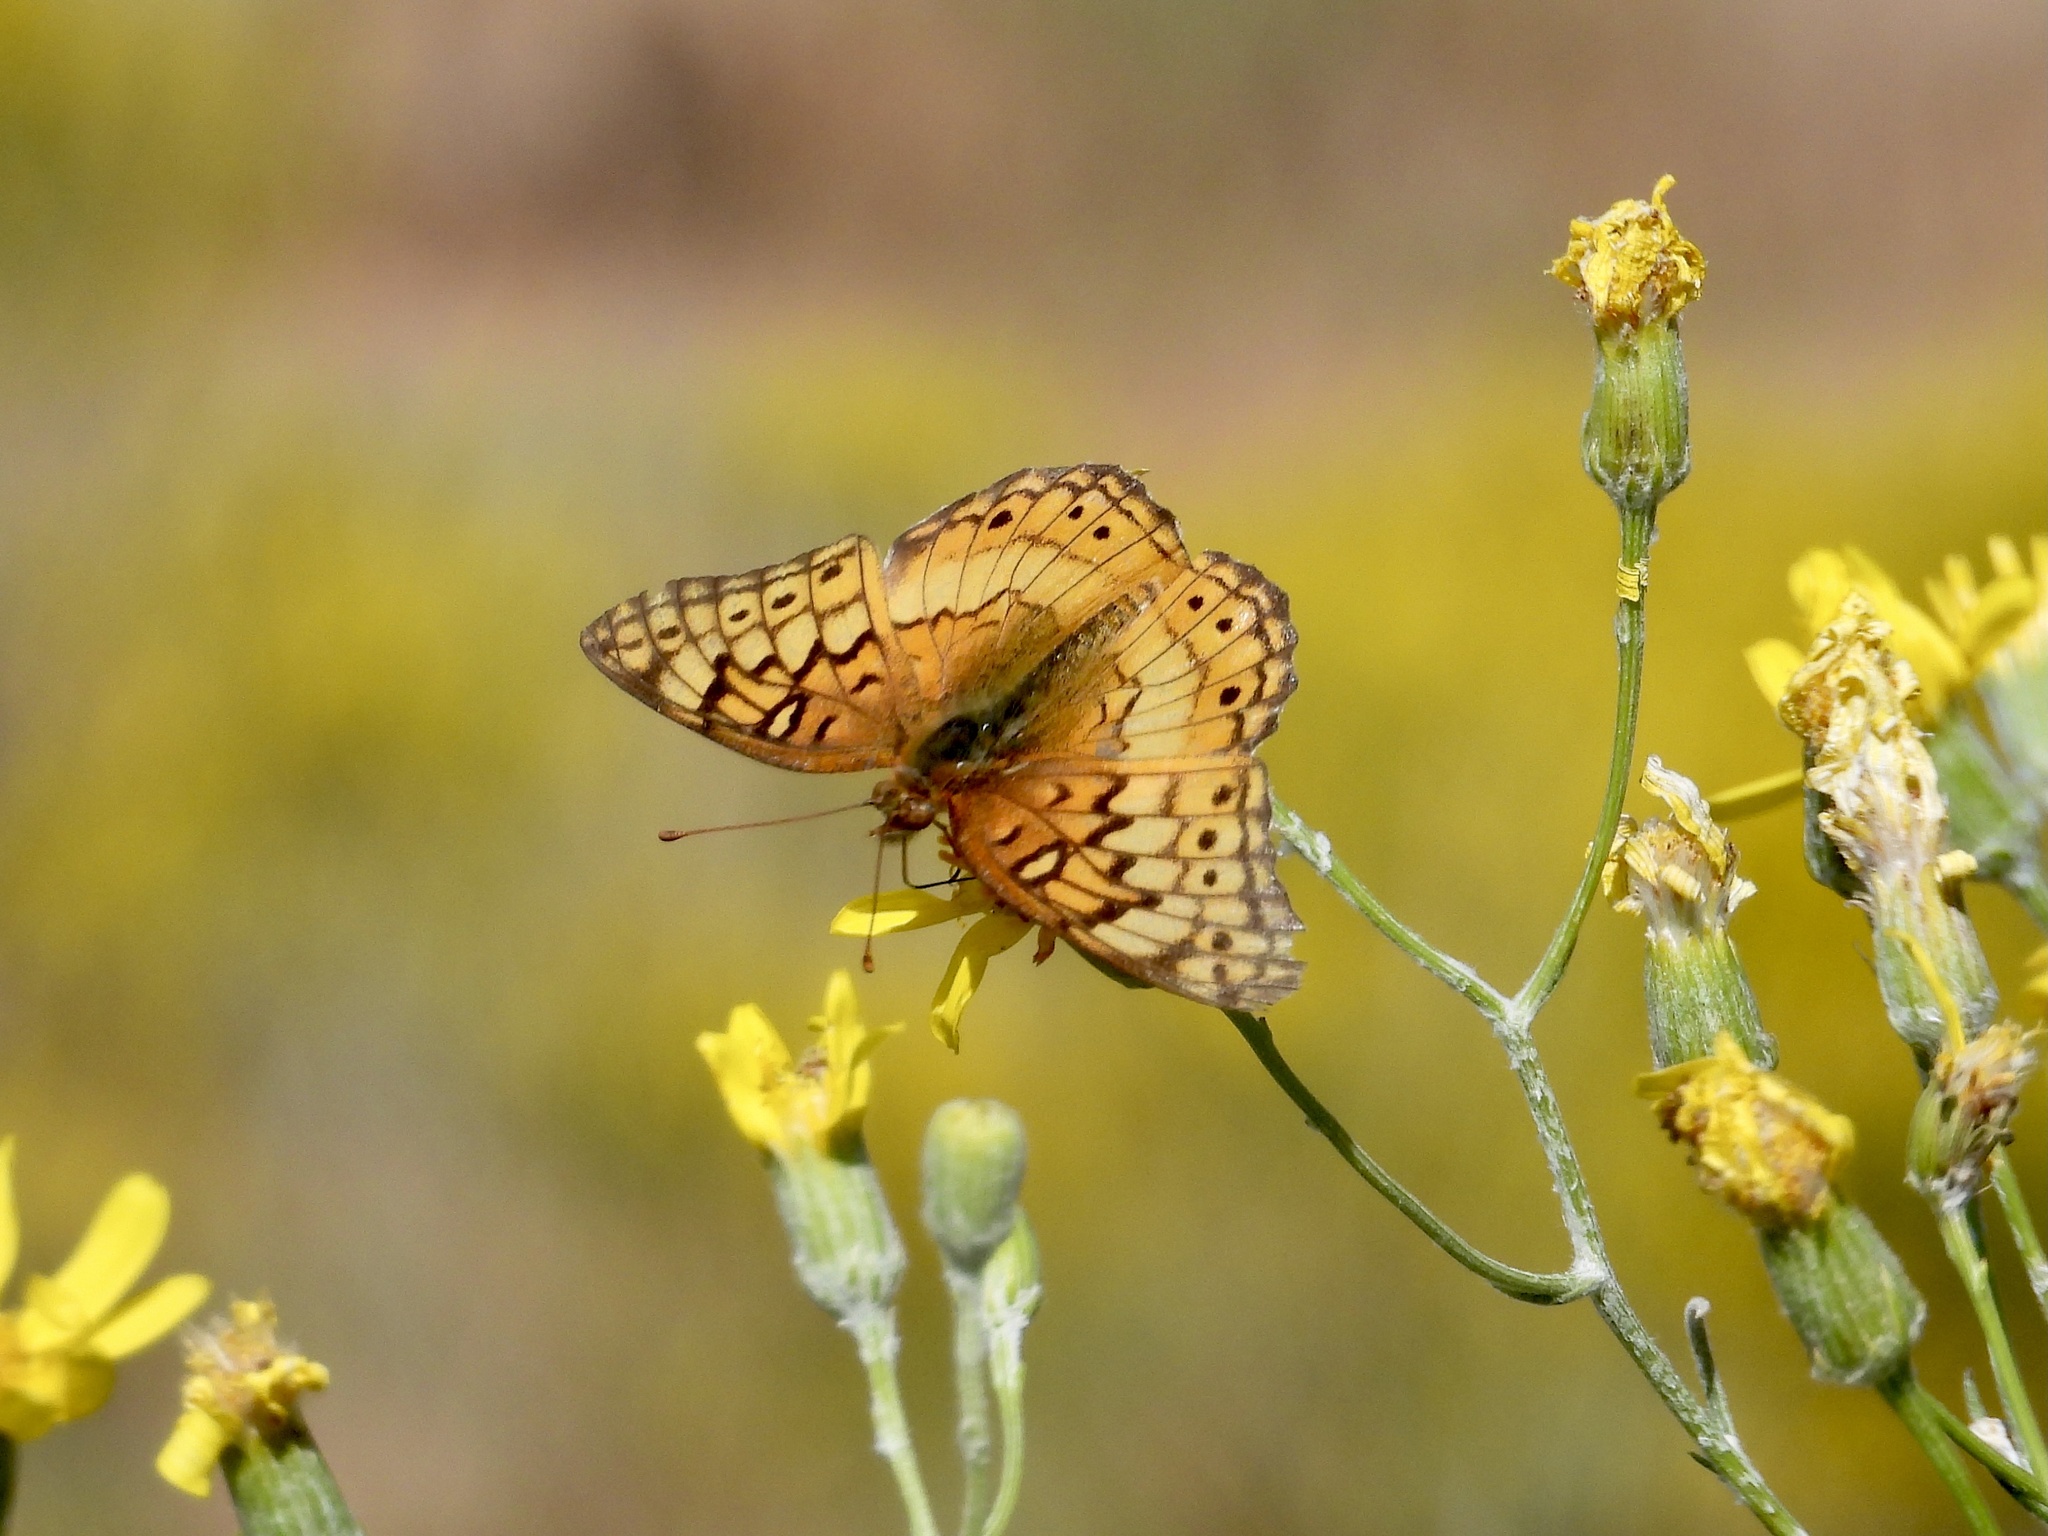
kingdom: Animalia
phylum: Arthropoda
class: Insecta
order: Lepidoptera
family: Nymphalidae
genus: Euptoieta
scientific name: Euptoieta claudia
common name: Variegated fritillary
